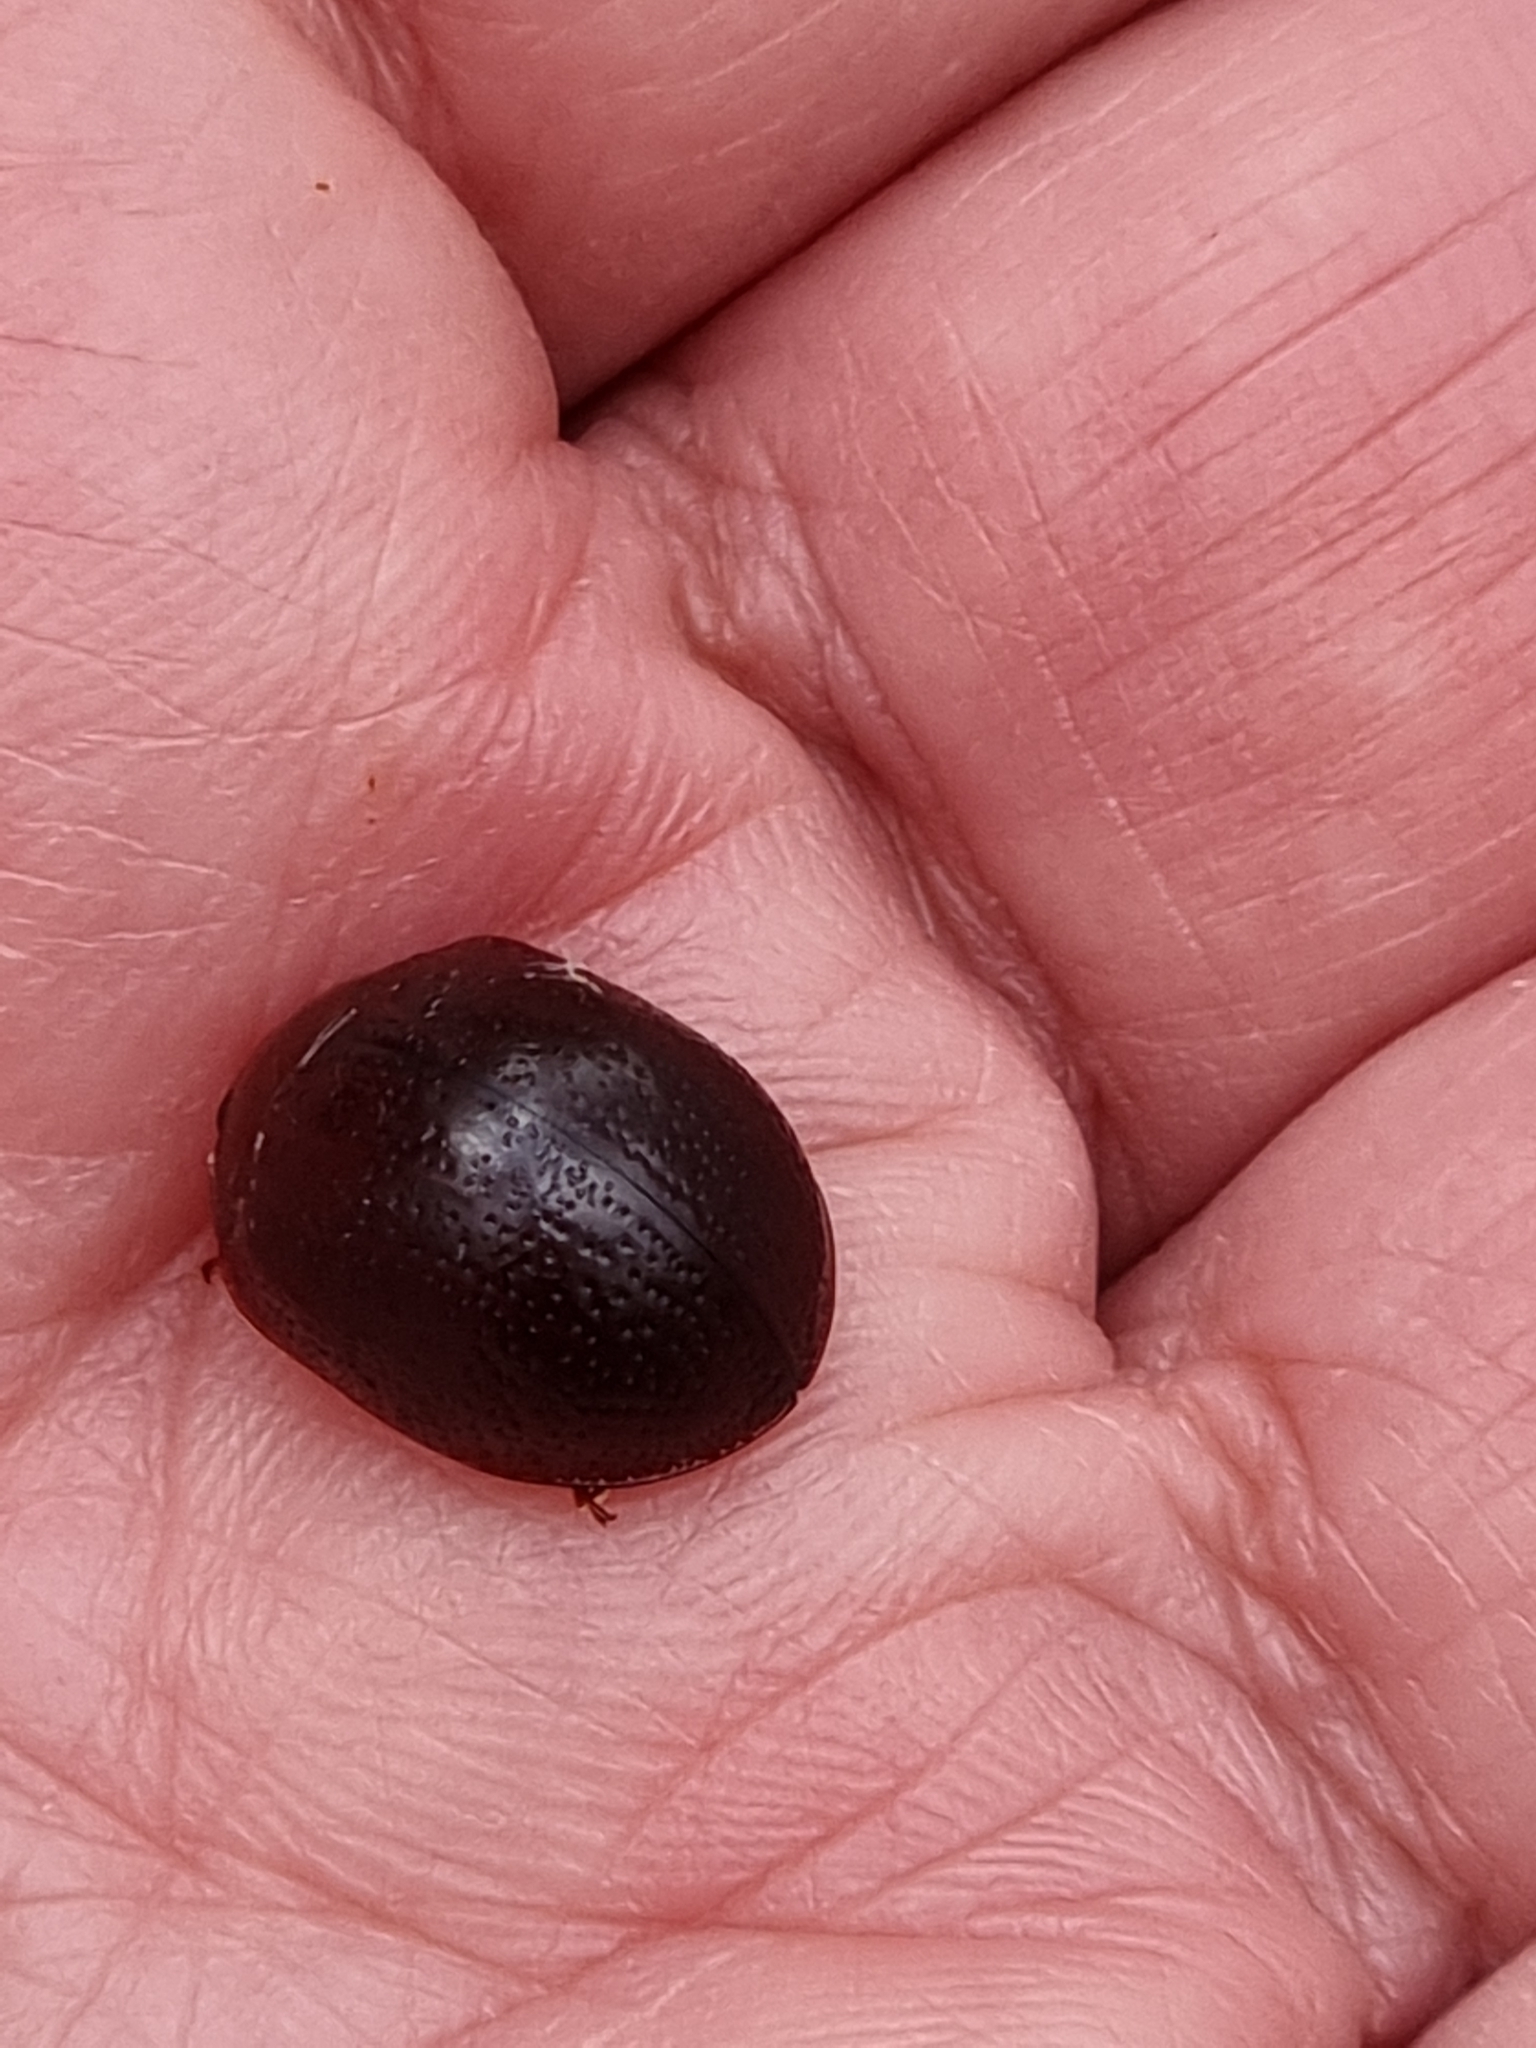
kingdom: Animalia
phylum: Arthropoda
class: Insecta
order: Coleoptera
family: Chrysomelidae
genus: Dicranosterna
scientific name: Dicranosterna
